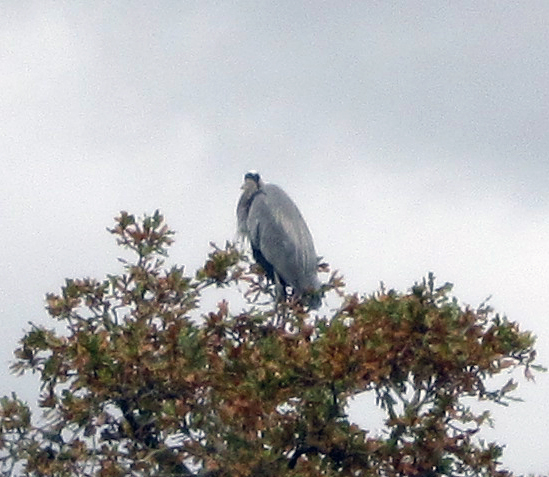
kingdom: Animalia
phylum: Chordata
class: Aves
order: Pelecaniformes
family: Ardeidae
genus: Ardea
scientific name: Ardea herodias
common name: Great blue heron
